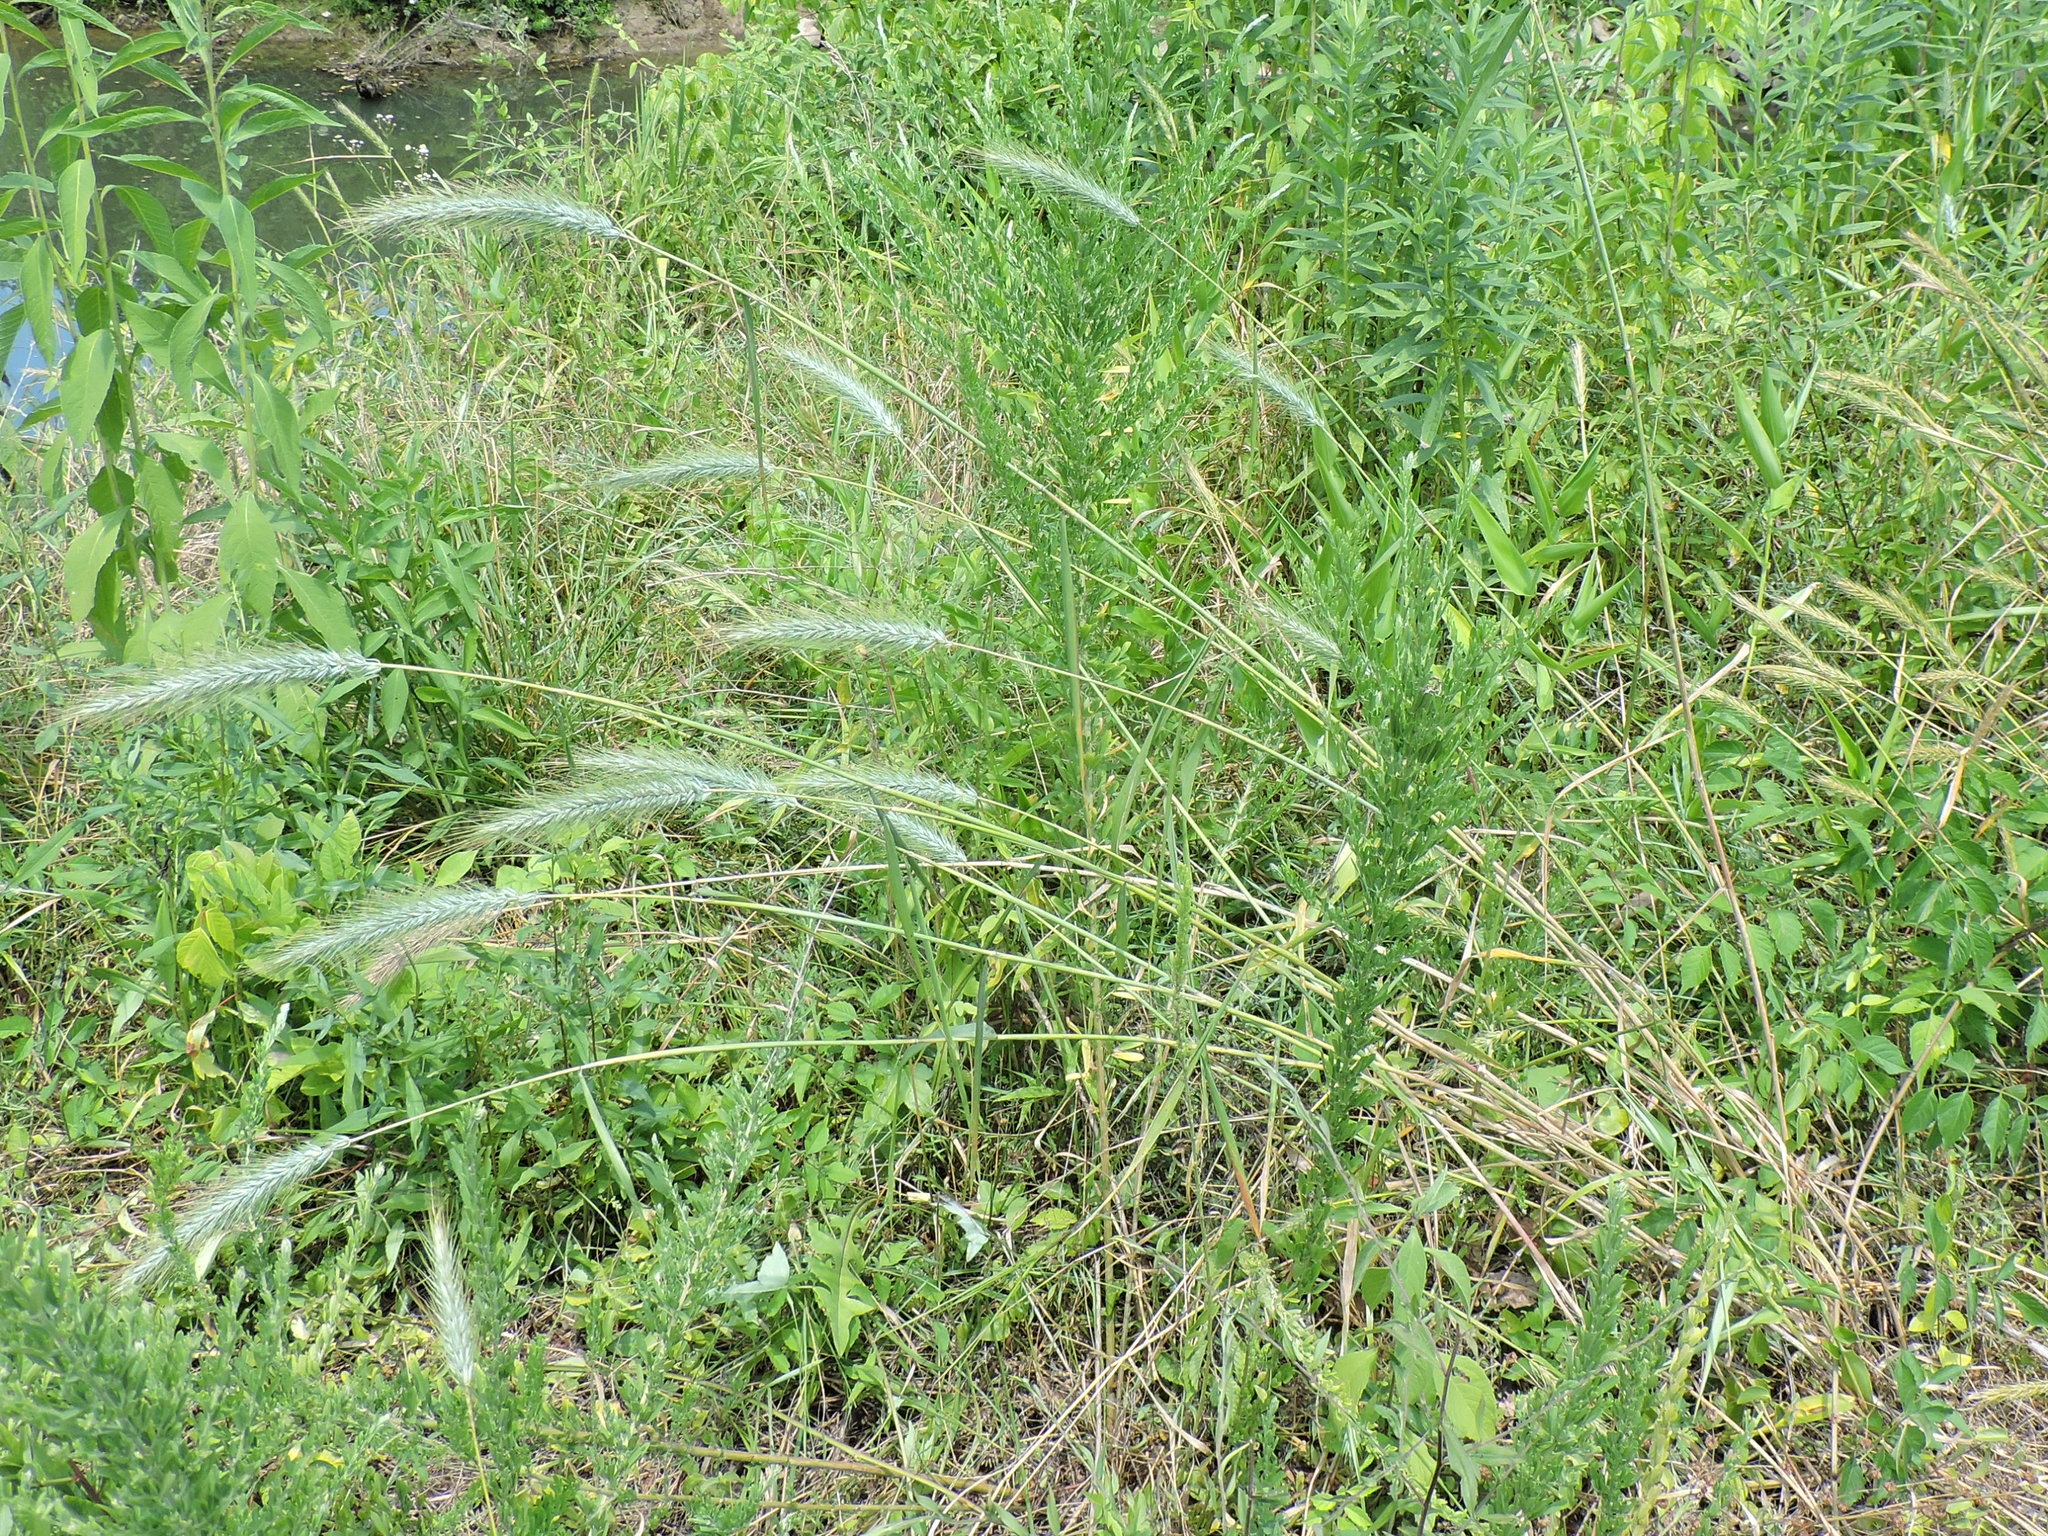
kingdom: Plantae
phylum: Tracheophyta
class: Liliopsida
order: Poales
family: Poaceae
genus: Elymus
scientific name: Elymus virginicus
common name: Common eastern wildrye
